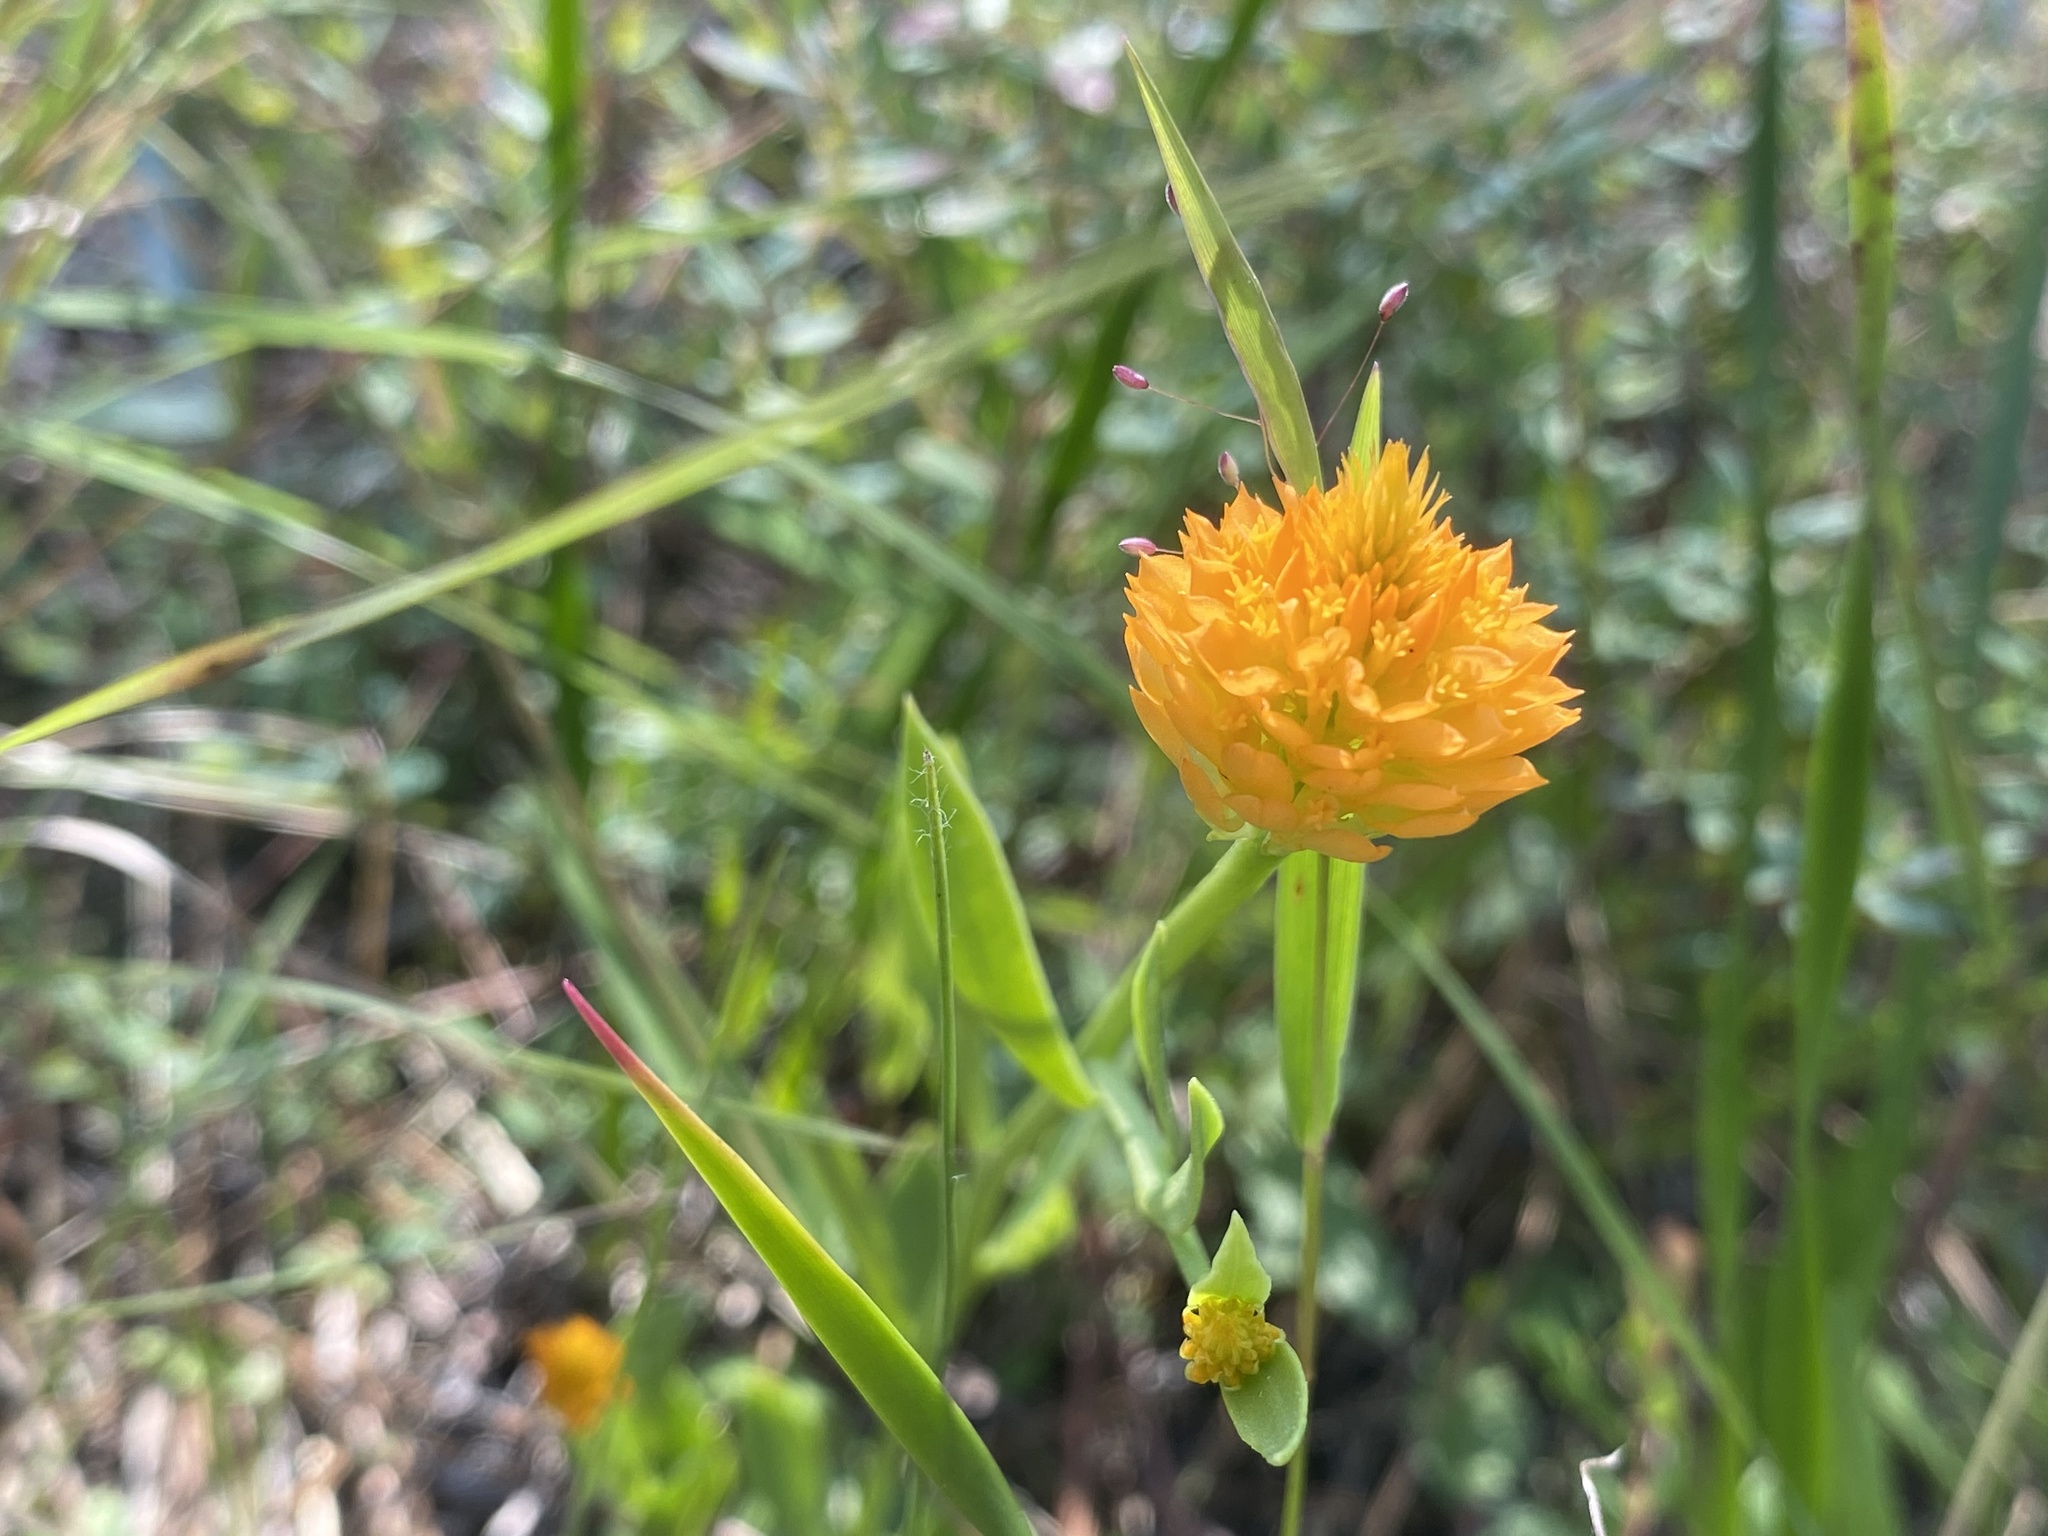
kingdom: Plantae
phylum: Tracheophyta
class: Magnoliopsida
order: Fabales
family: Polygalaceae
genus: Polygala
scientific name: Polygala lutea
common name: Orange milkwort
